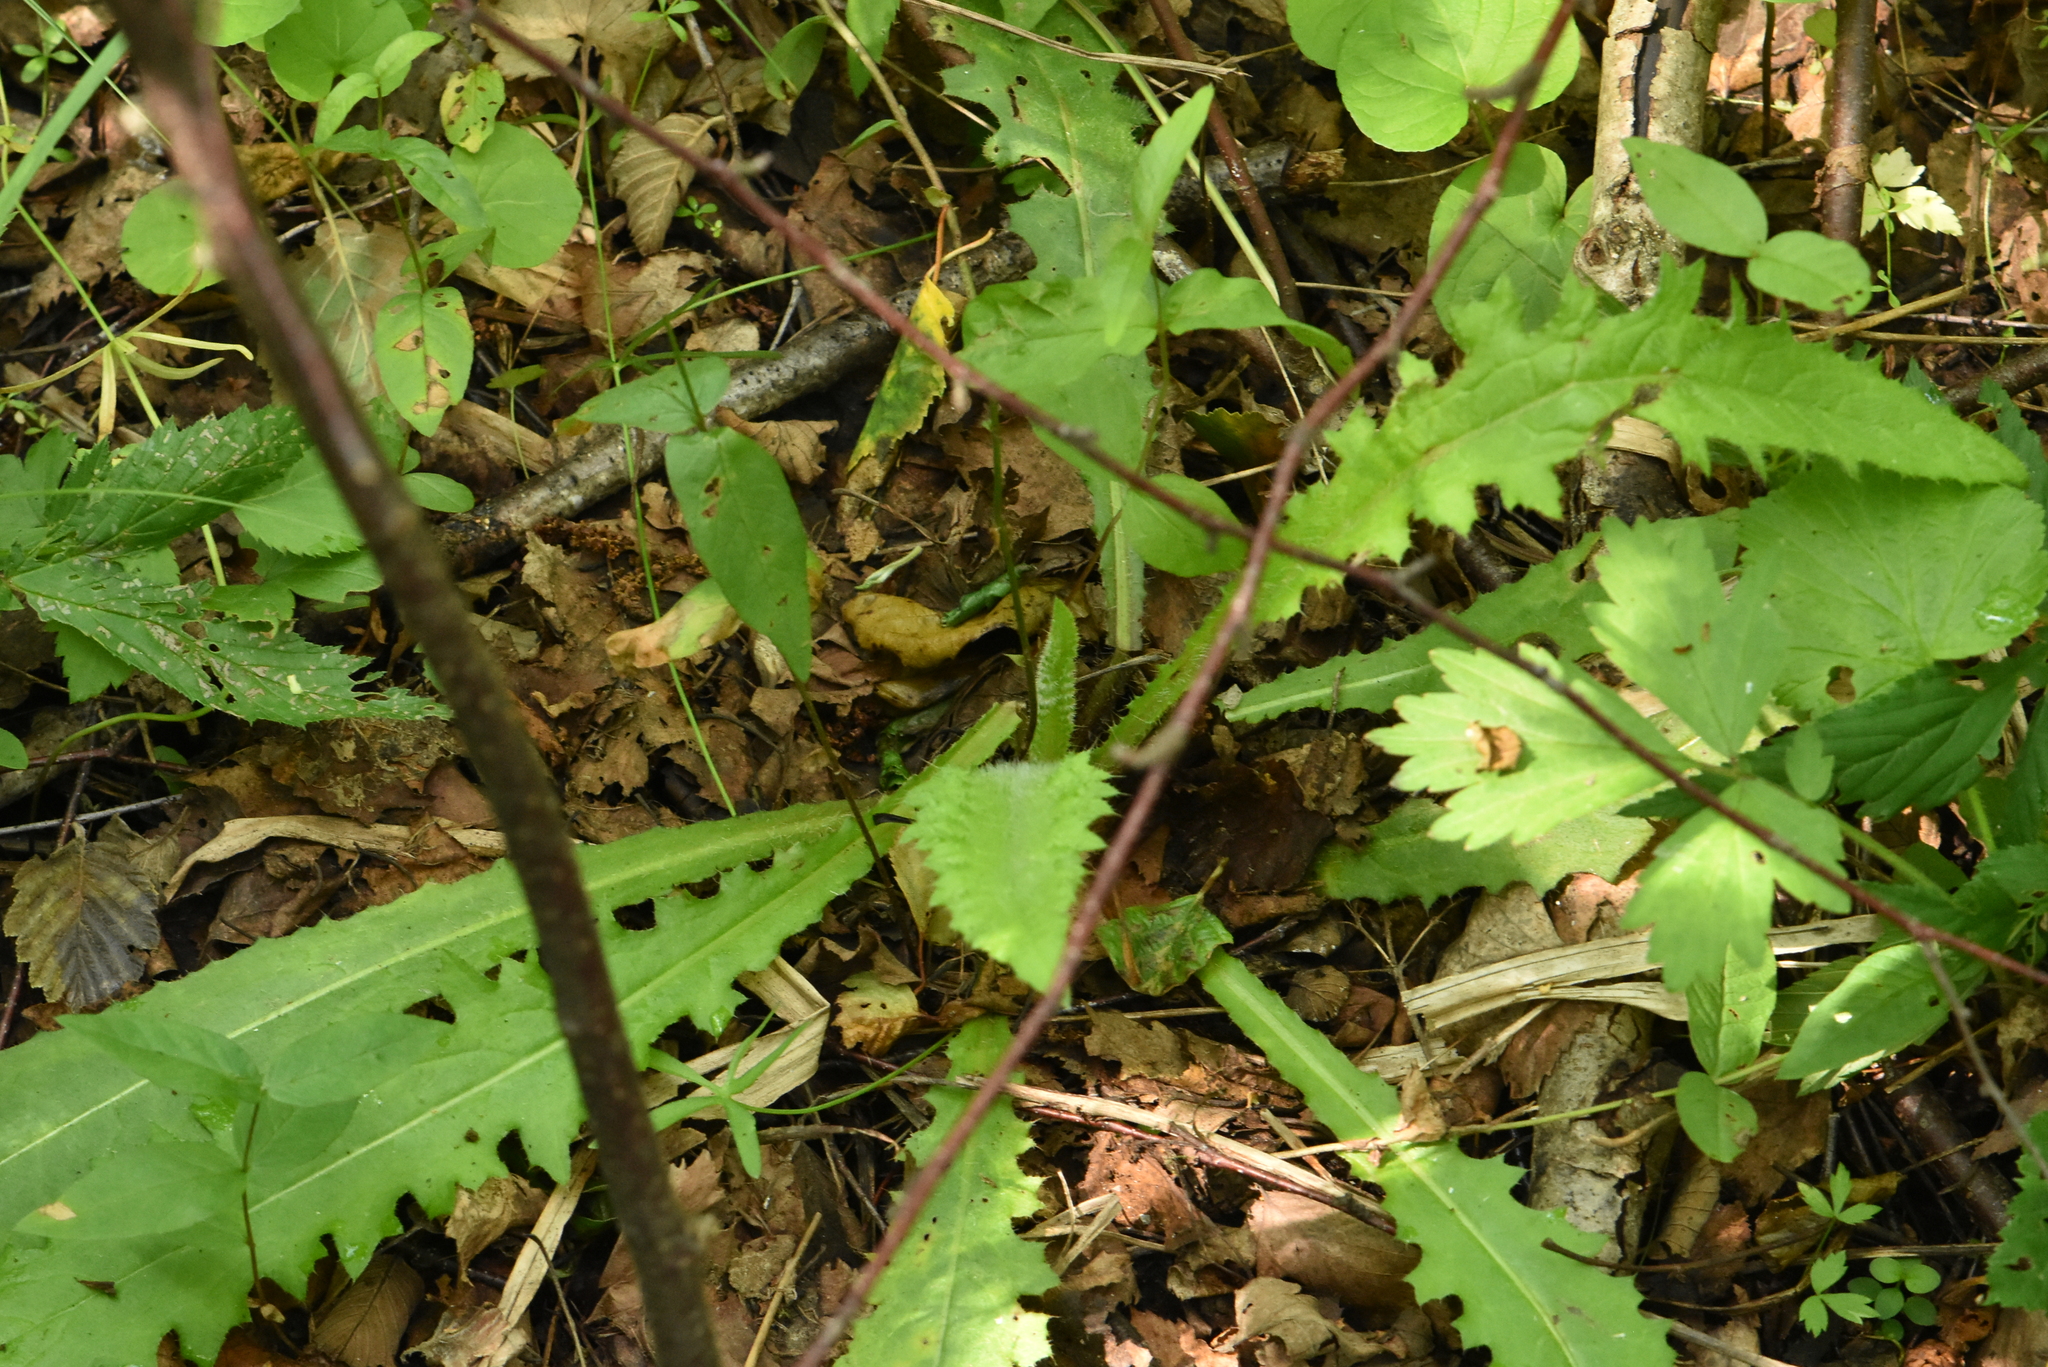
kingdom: Plantae
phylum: Tracheophyta
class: Magnoliopsida
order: Asterales
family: Asteraceae
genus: Cirsium
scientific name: Cirsium palustre
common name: Marsh thistle
